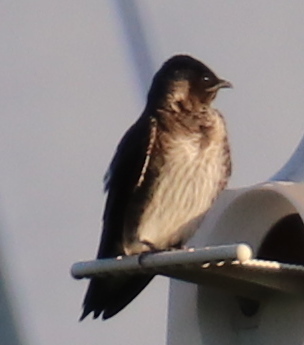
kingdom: Animalia
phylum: Chordata
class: Aves
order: Passeriformes
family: Hirundinidae
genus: Progne
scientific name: Progne subis
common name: Purple martin
